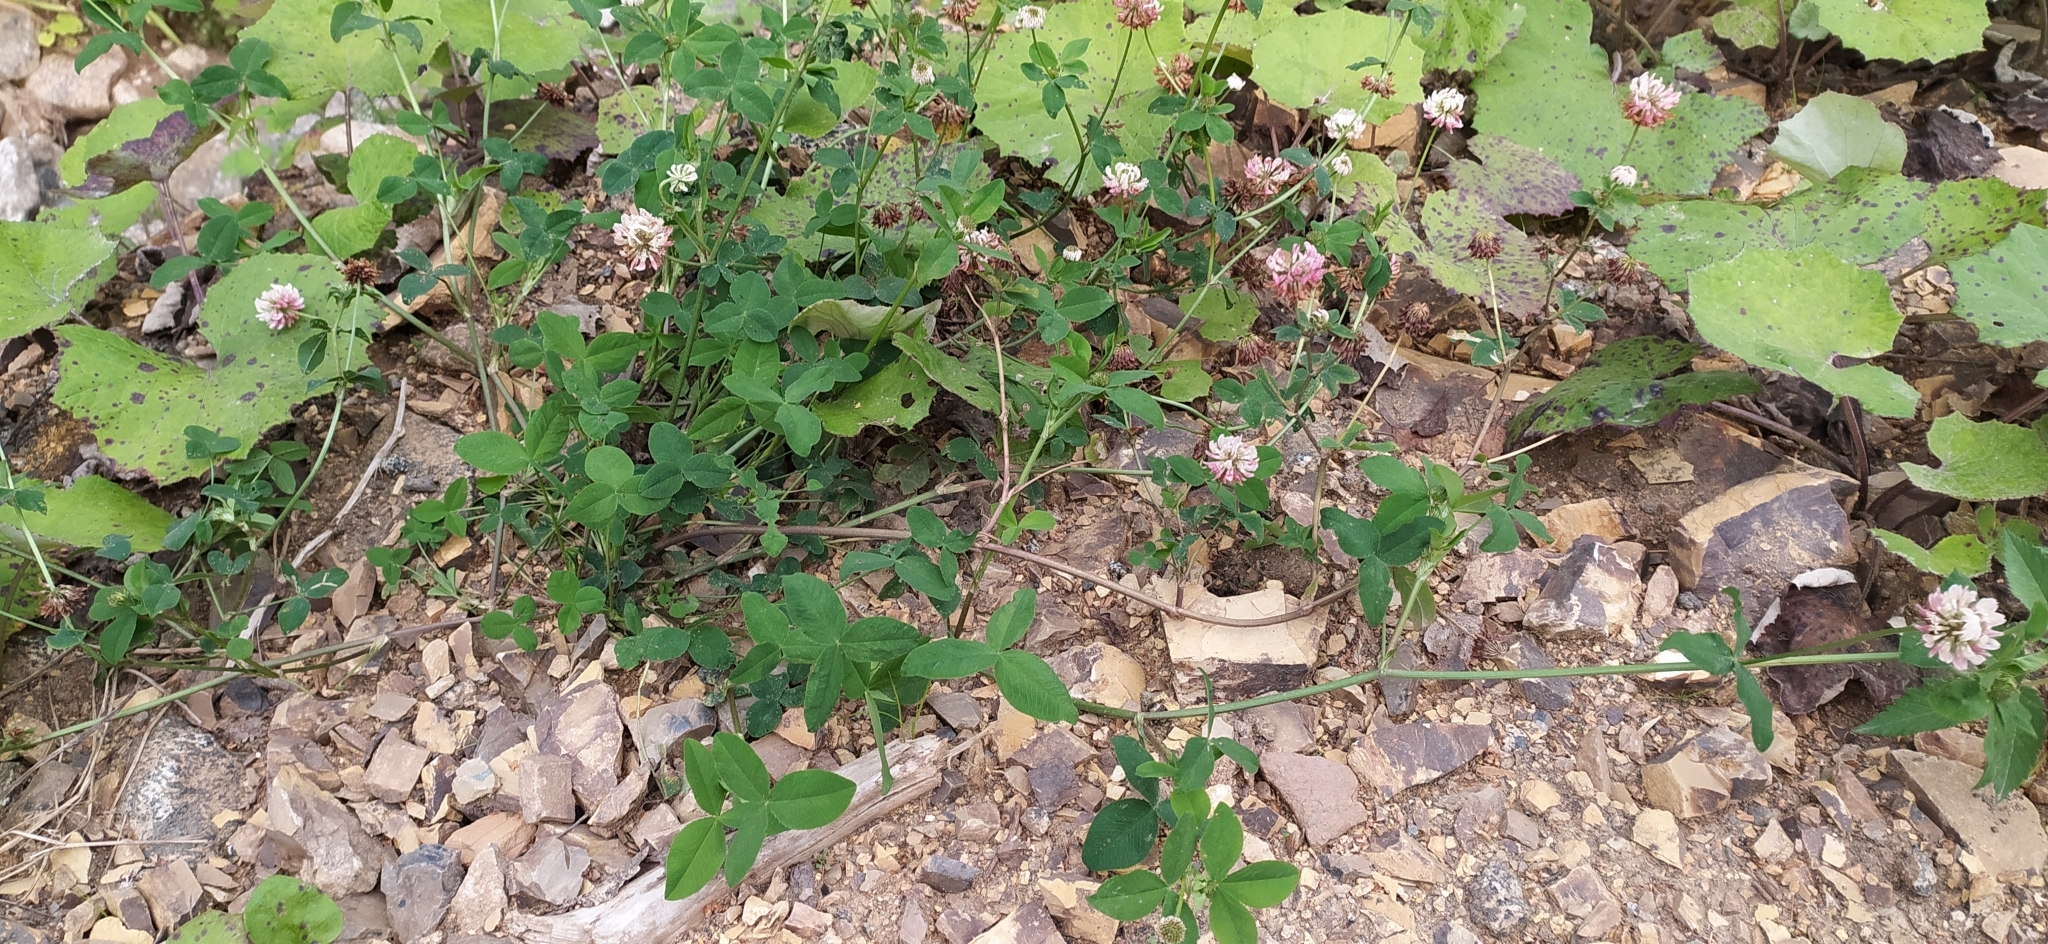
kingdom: Plantae
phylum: Tracheophyta
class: Magnoliopsida
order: Fabales
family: Fabaceae
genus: Trifolium
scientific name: Trifolium hybridum
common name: Alsike clover
